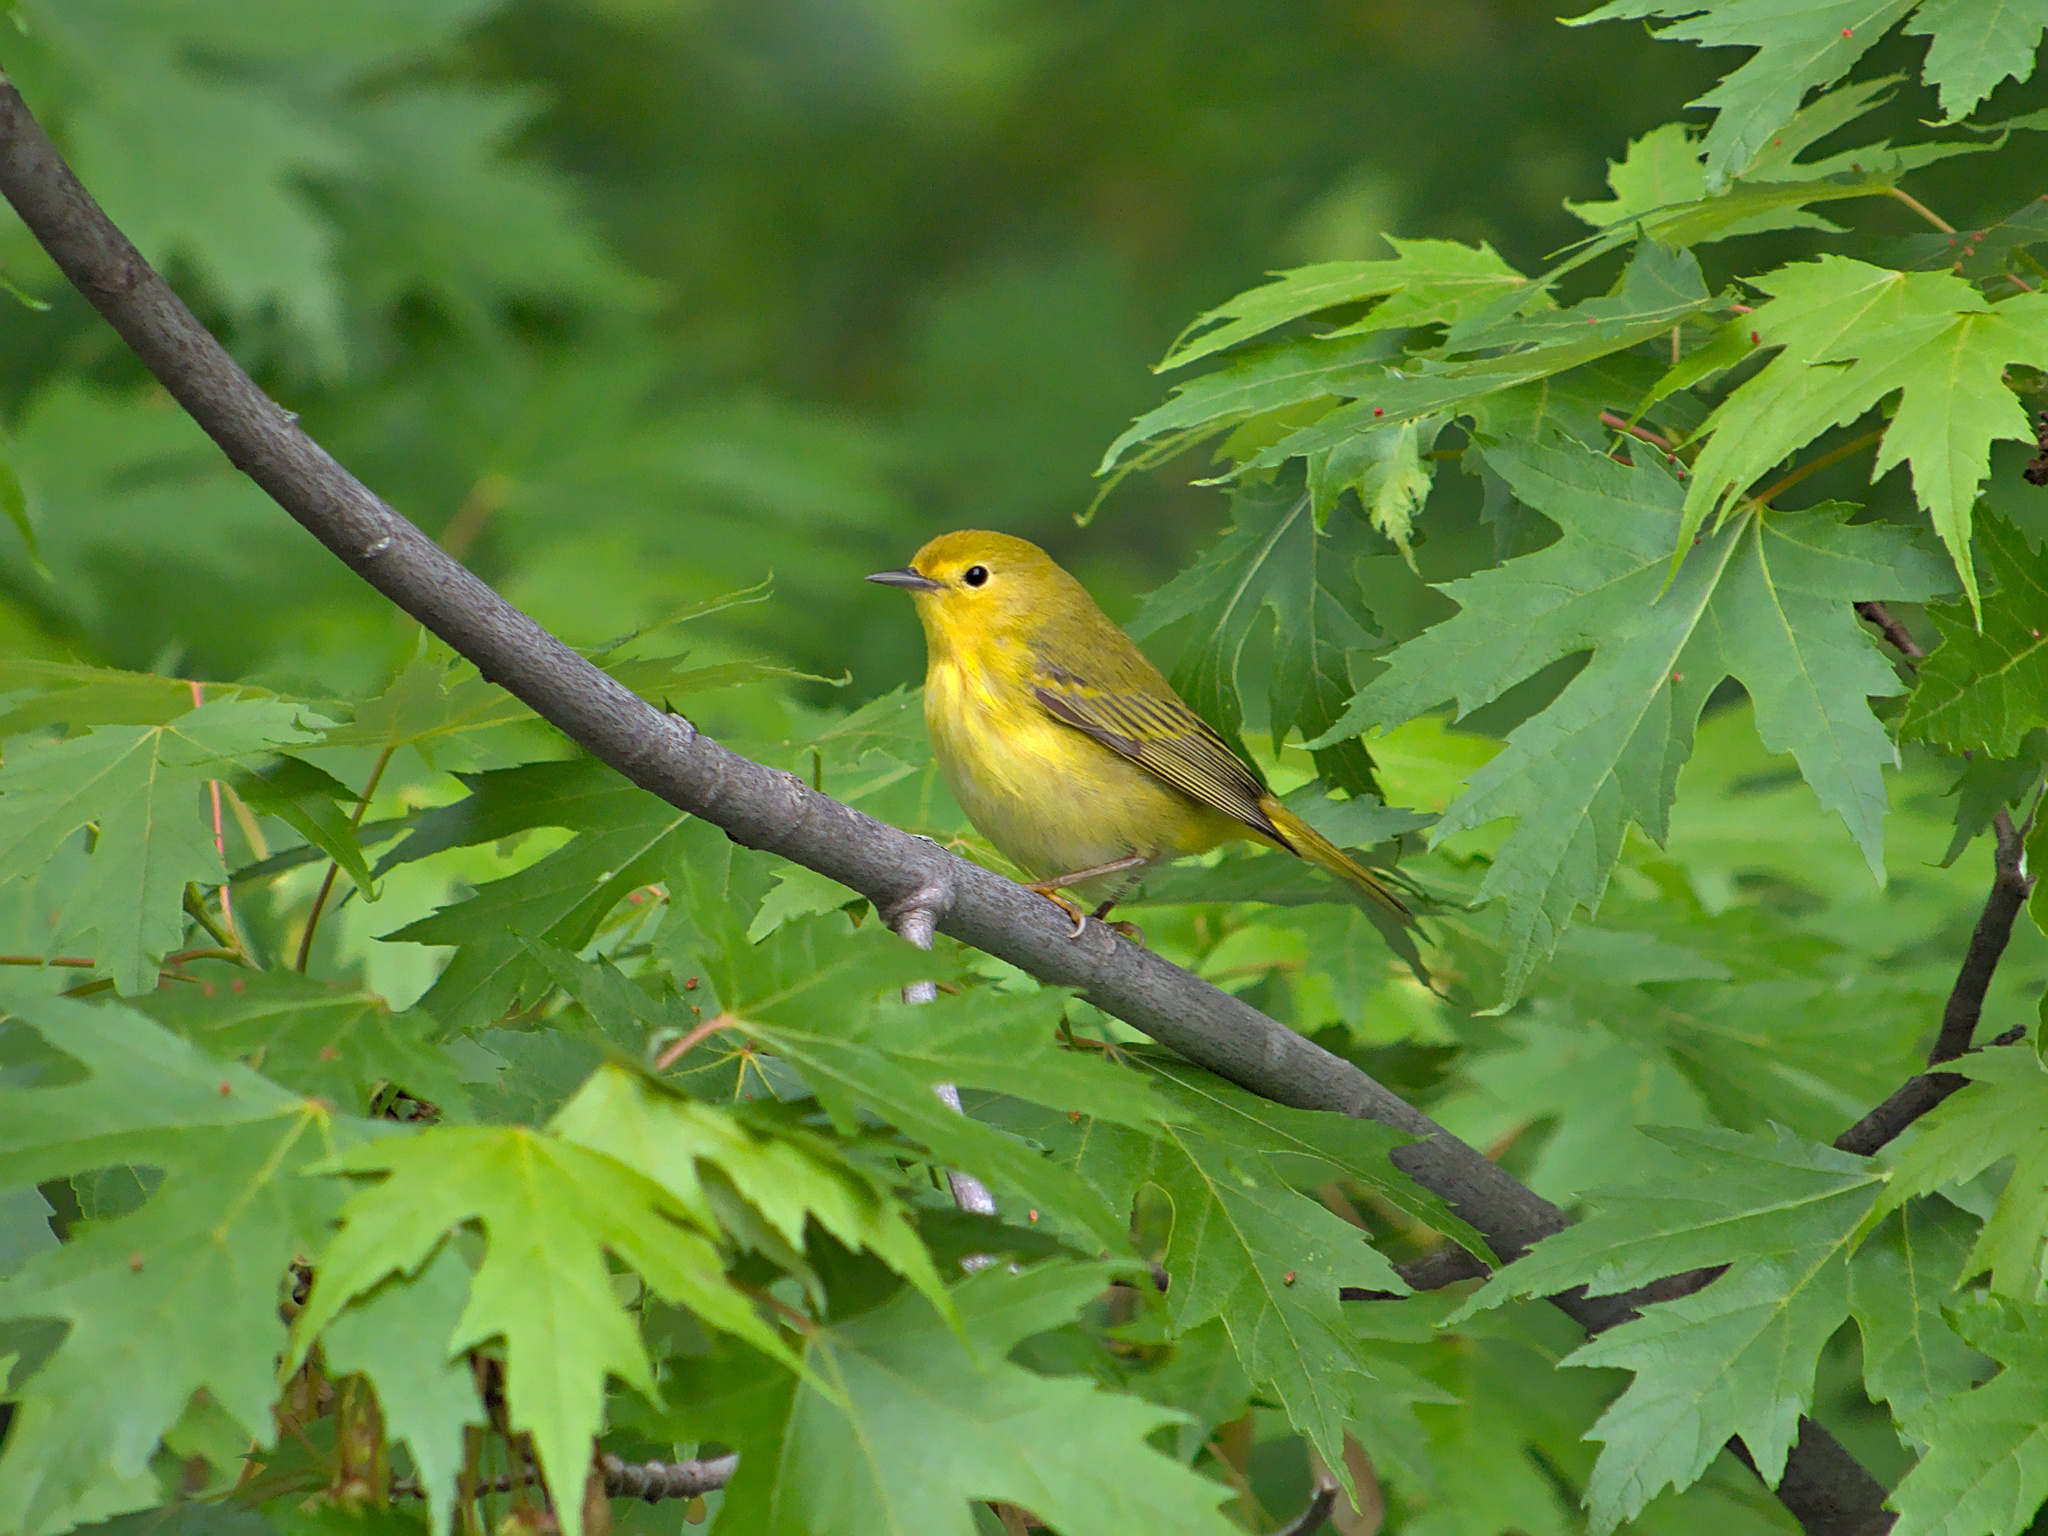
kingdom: Animalia
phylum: Chordata
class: Aves
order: Passeriformes
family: Parulidae
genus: Setophaga
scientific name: Setophaga petechia
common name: Yellow warbler
